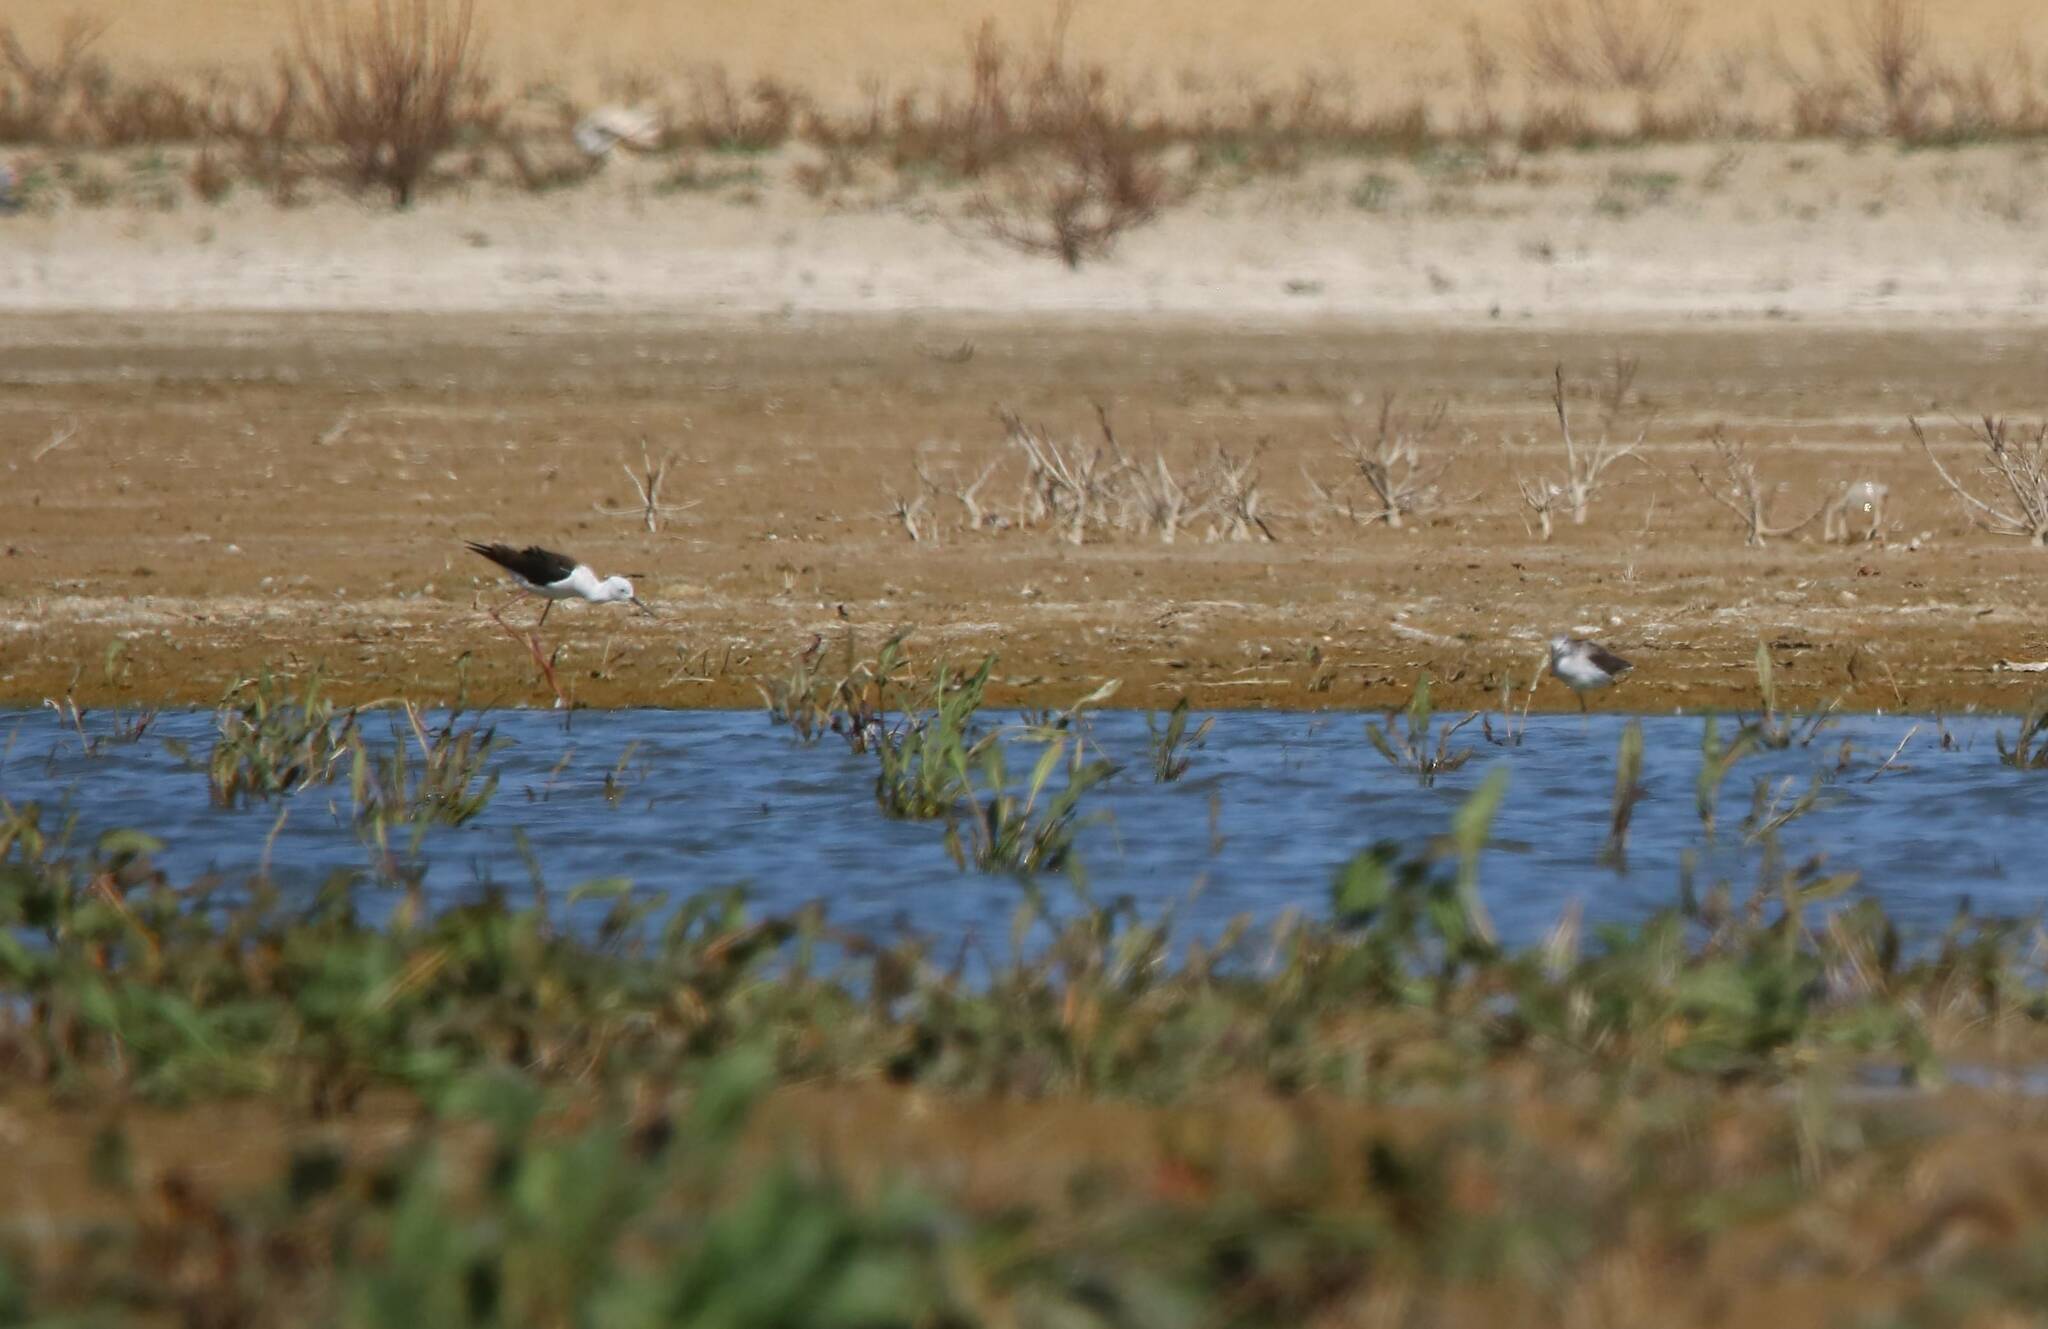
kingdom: Animalia
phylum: Chordata
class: Aves
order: Charadriiformes
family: Recurvirostridae
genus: Himantopus
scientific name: Himantopus himantopus
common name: Black-winged stilt
